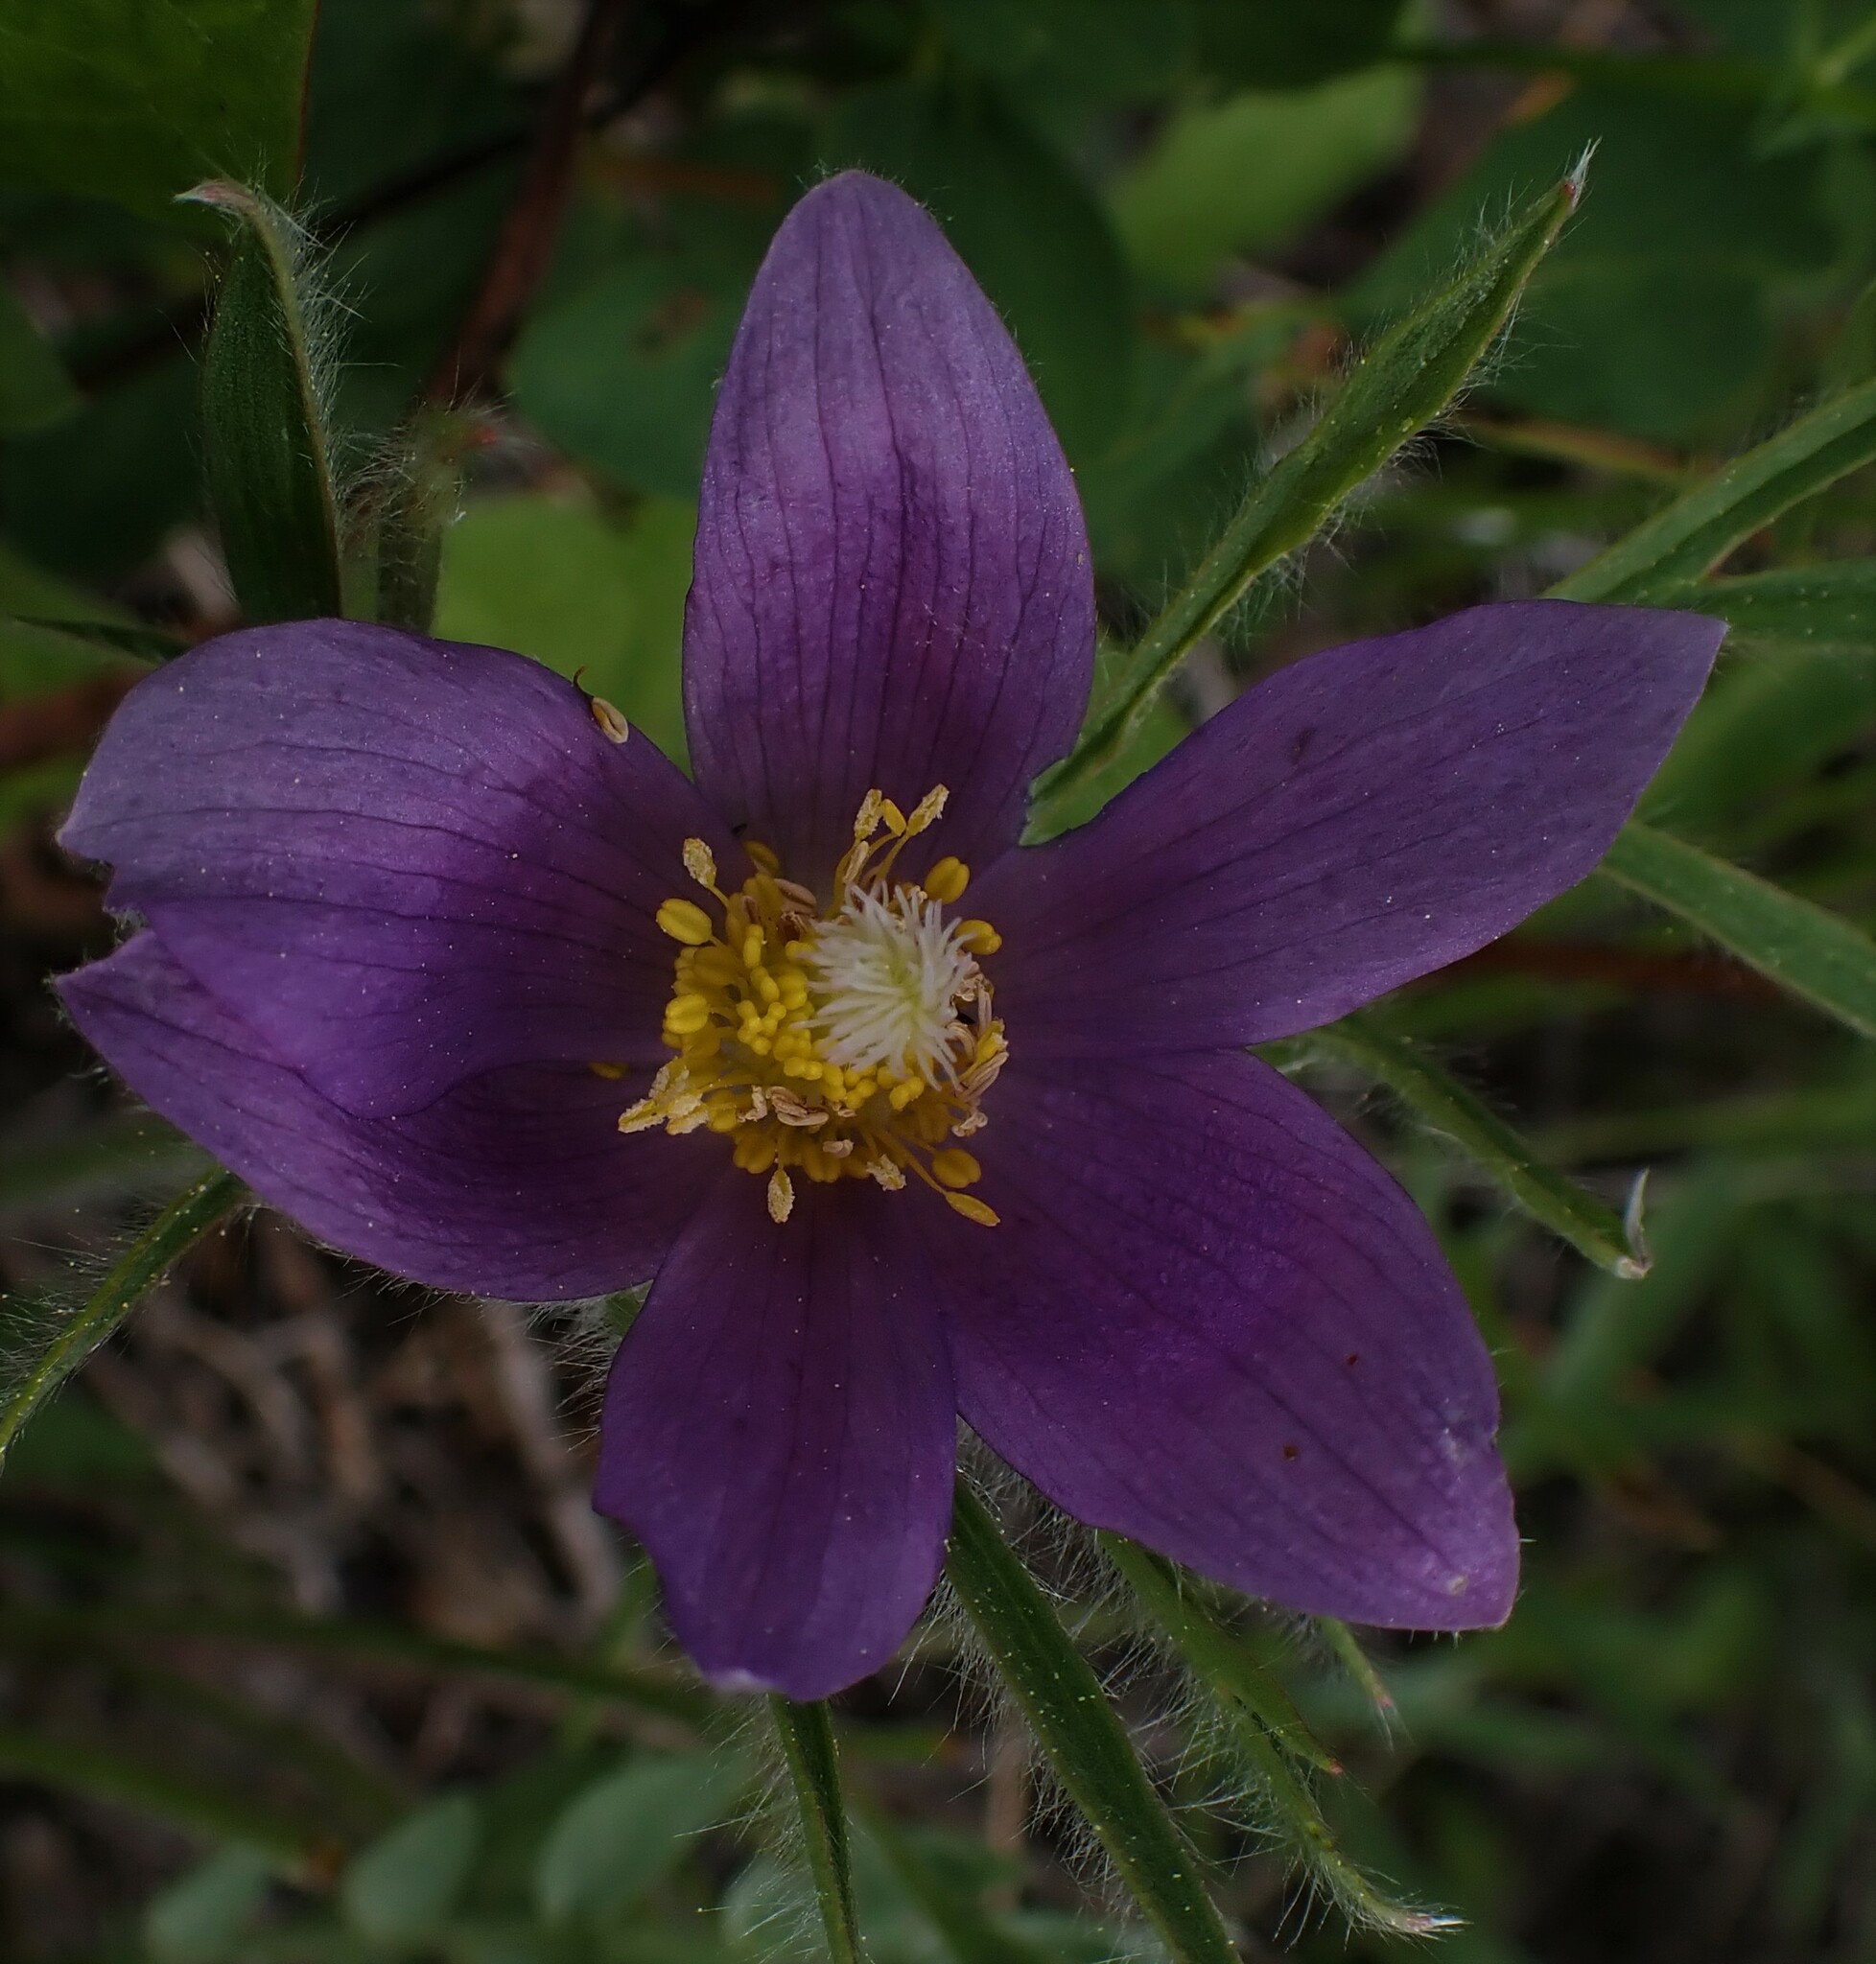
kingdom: Plantae
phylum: Tracheophyta
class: Magnoliopsida
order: Ranunculales
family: Ranunculaceae
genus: Pulsatilla
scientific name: Pulsatilla nuttalliana
